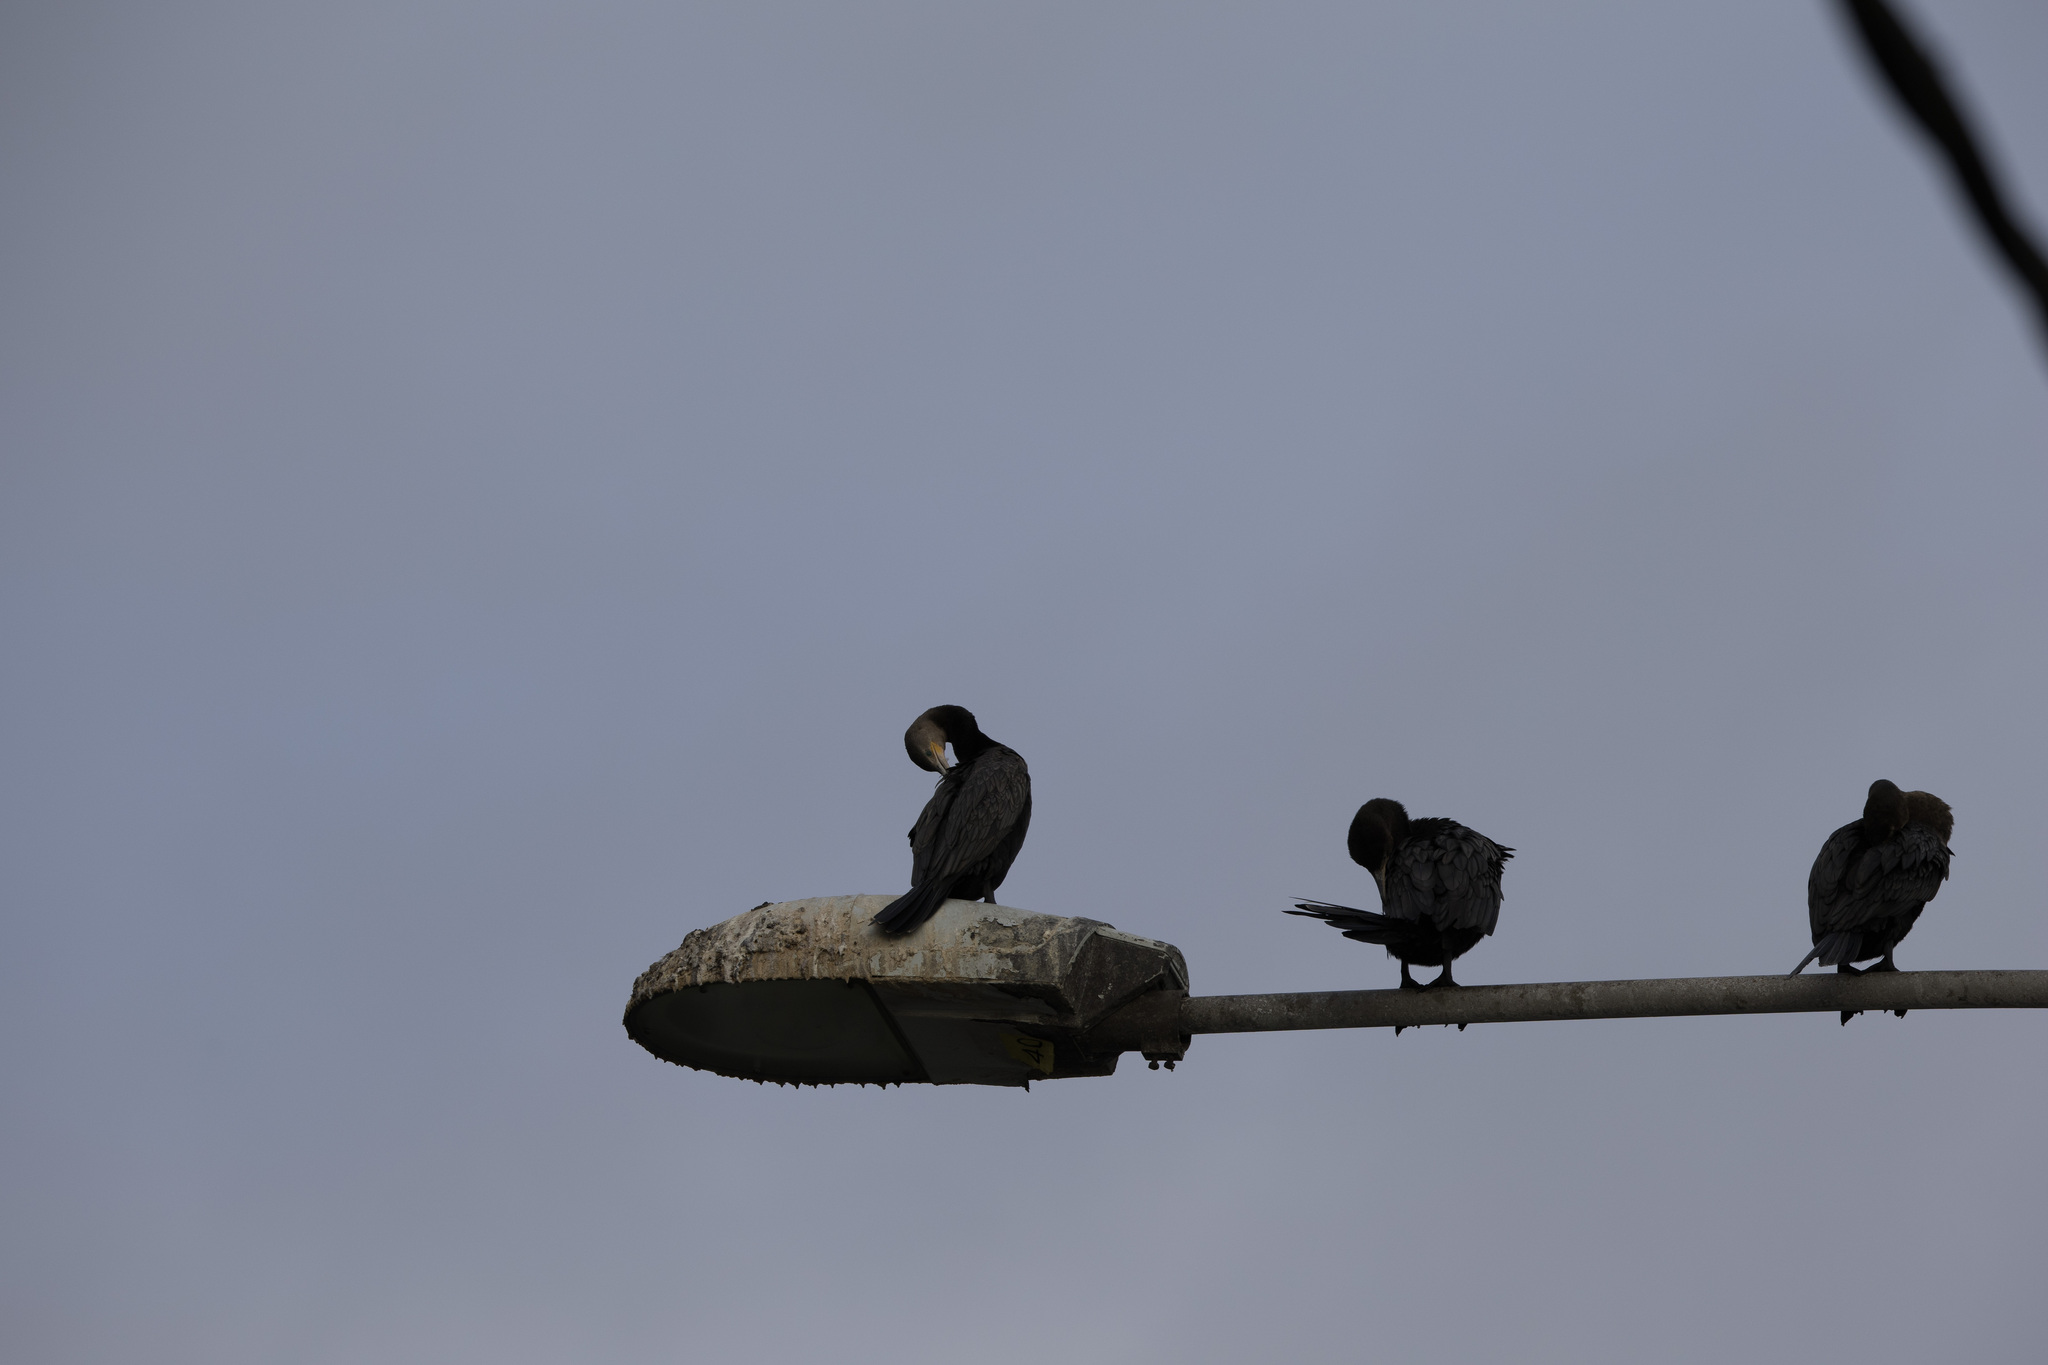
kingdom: Animalia
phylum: Chordata
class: Aves
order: Suliformes
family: Phalacrocoracidae
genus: Phalacrocorax
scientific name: Phalacrocorax brasilianus
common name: Neotropic cormorant
